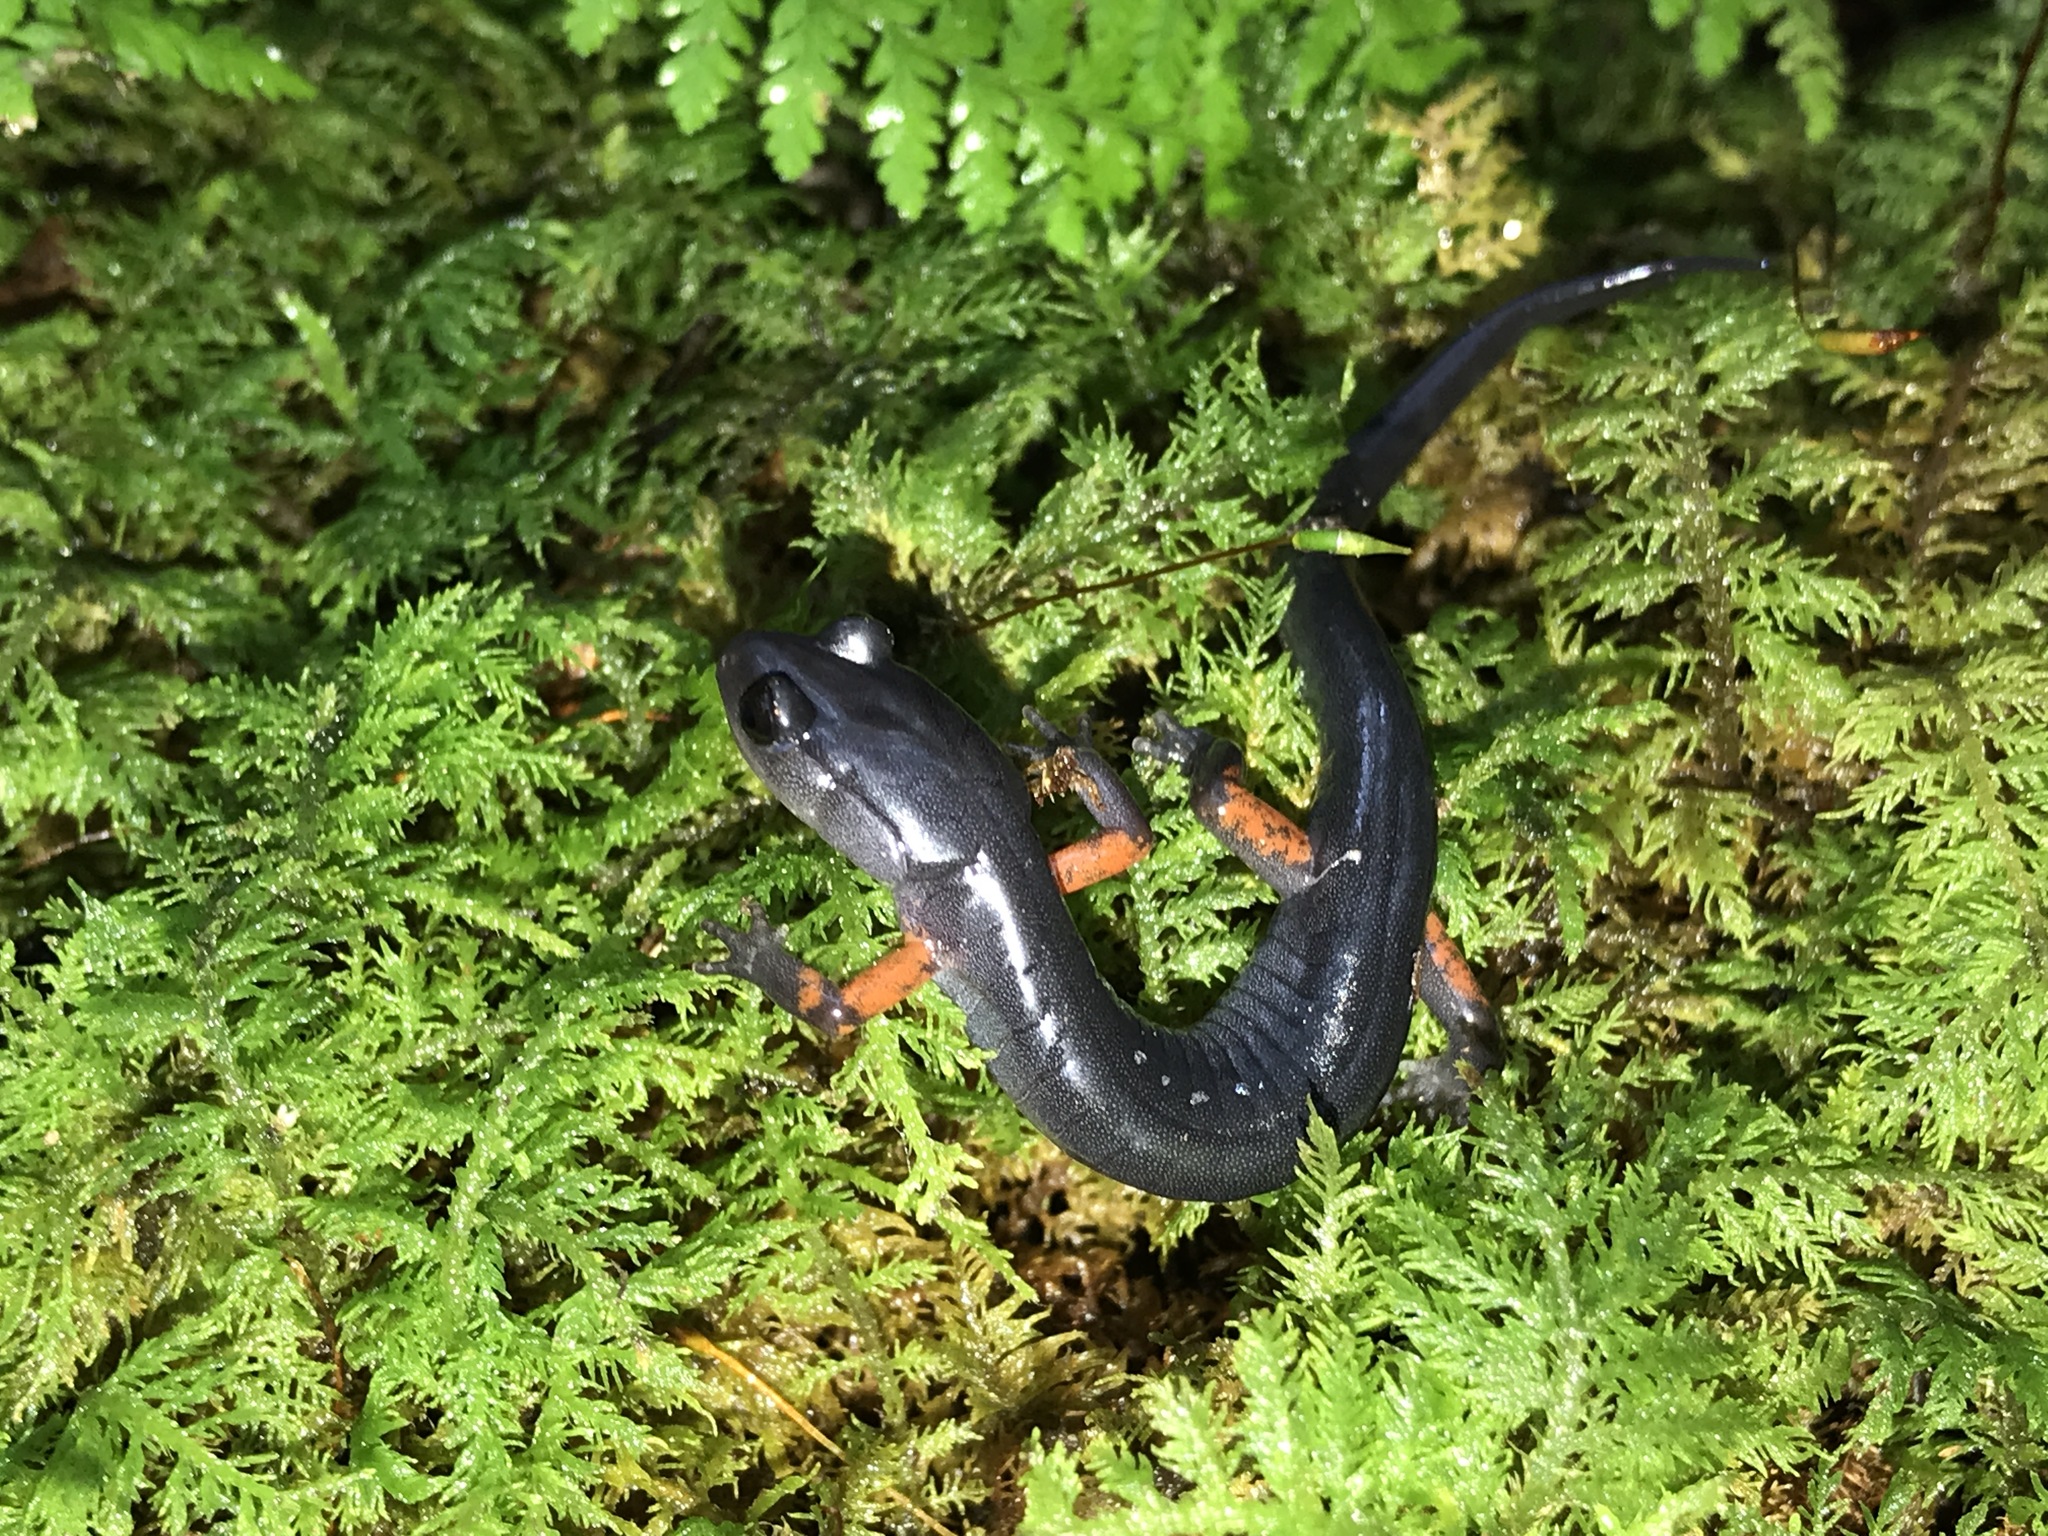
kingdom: Animalia
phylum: Chordata
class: Amphibia
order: Caudata
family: Plethodontidae
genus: Plethodon
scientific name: Plethodon shermani
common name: Red-legged salamander
